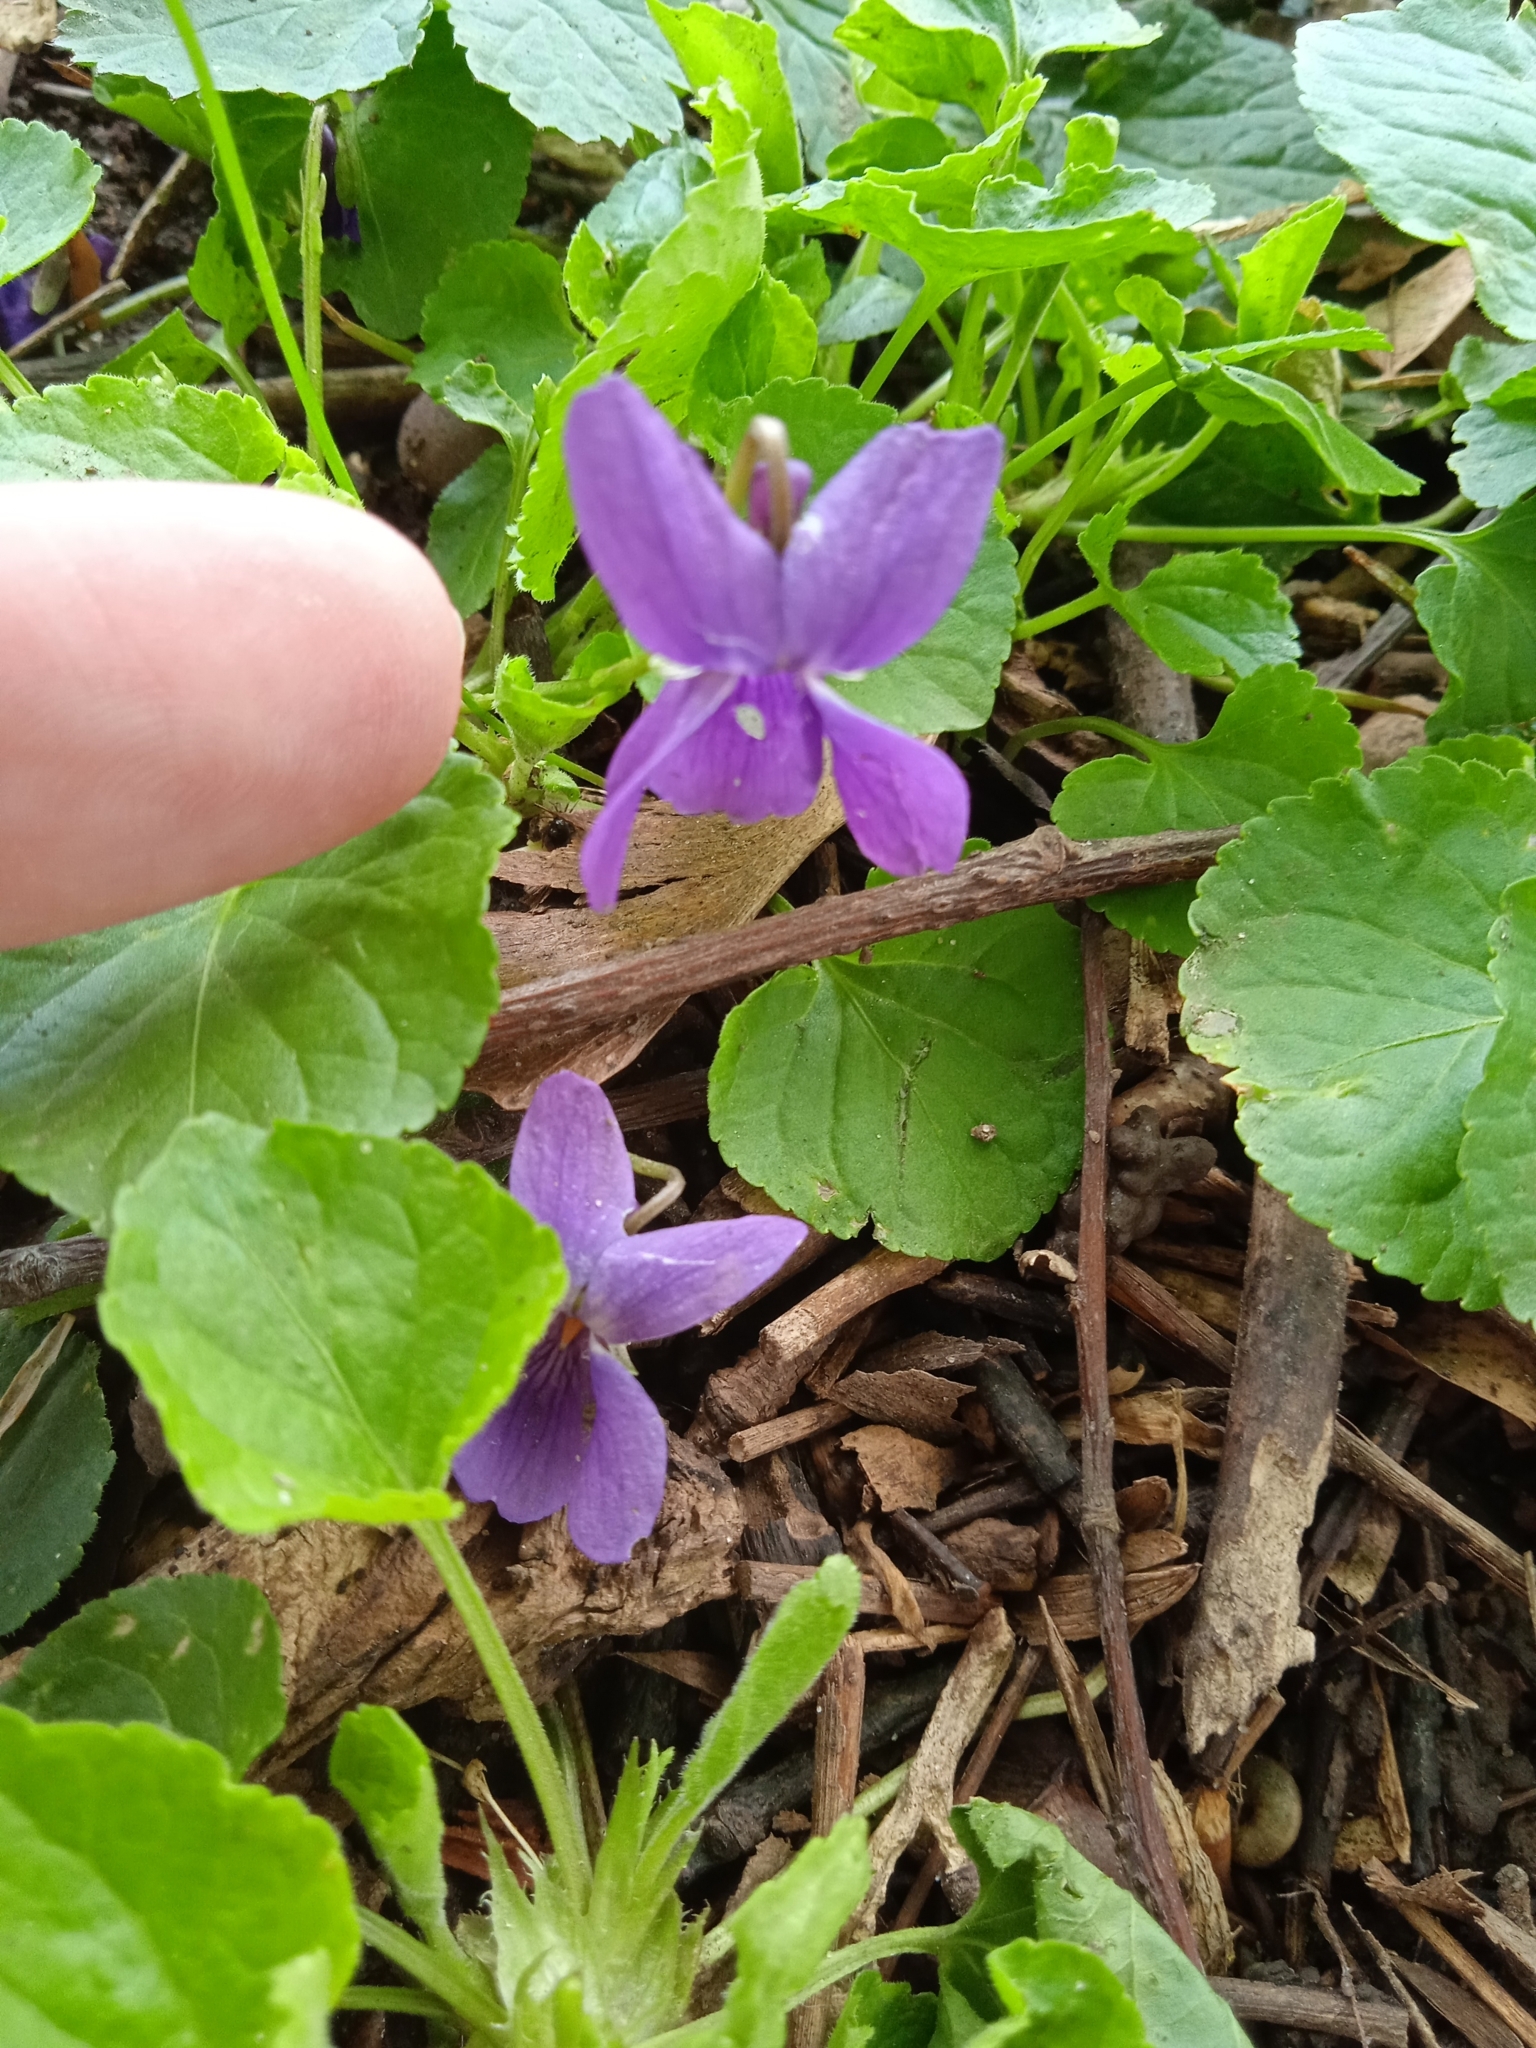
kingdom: Plantae
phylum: Tracheophyta
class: Magnoliopsida
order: Malpighiales
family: Violaceae
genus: Viola
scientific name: Viola odorata
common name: Sweet violet
